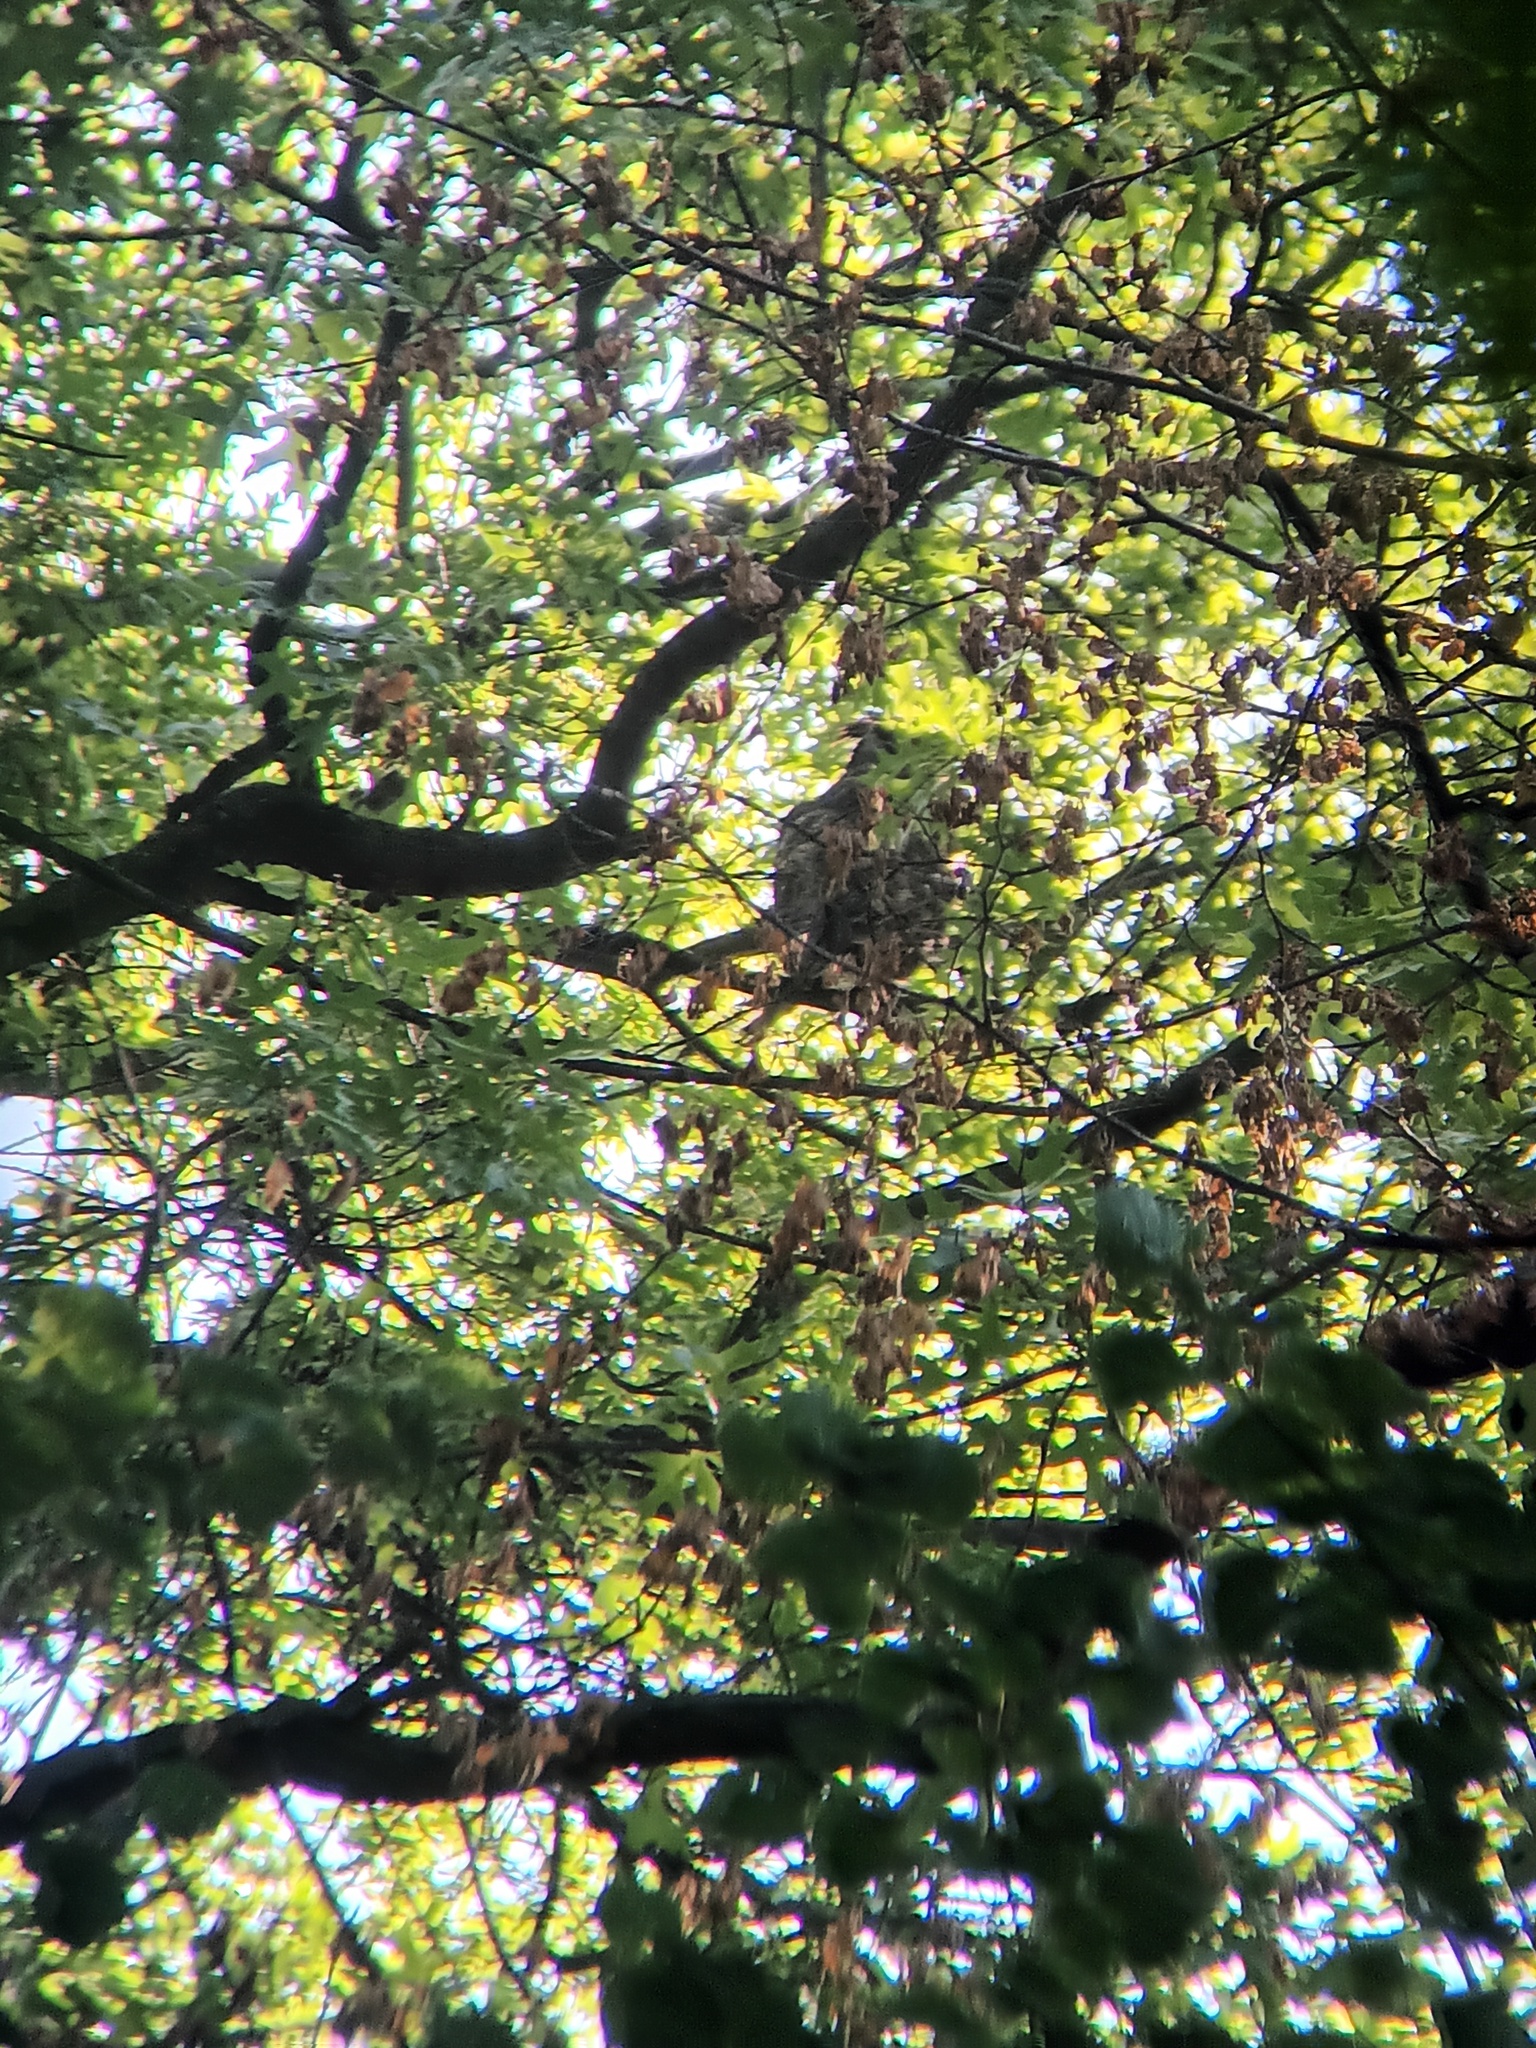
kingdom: Animalia
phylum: Chordata
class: Aves
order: Strigiformes
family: Strigidae
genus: Bubo
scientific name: Bubo virginianus
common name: Great horned owl
